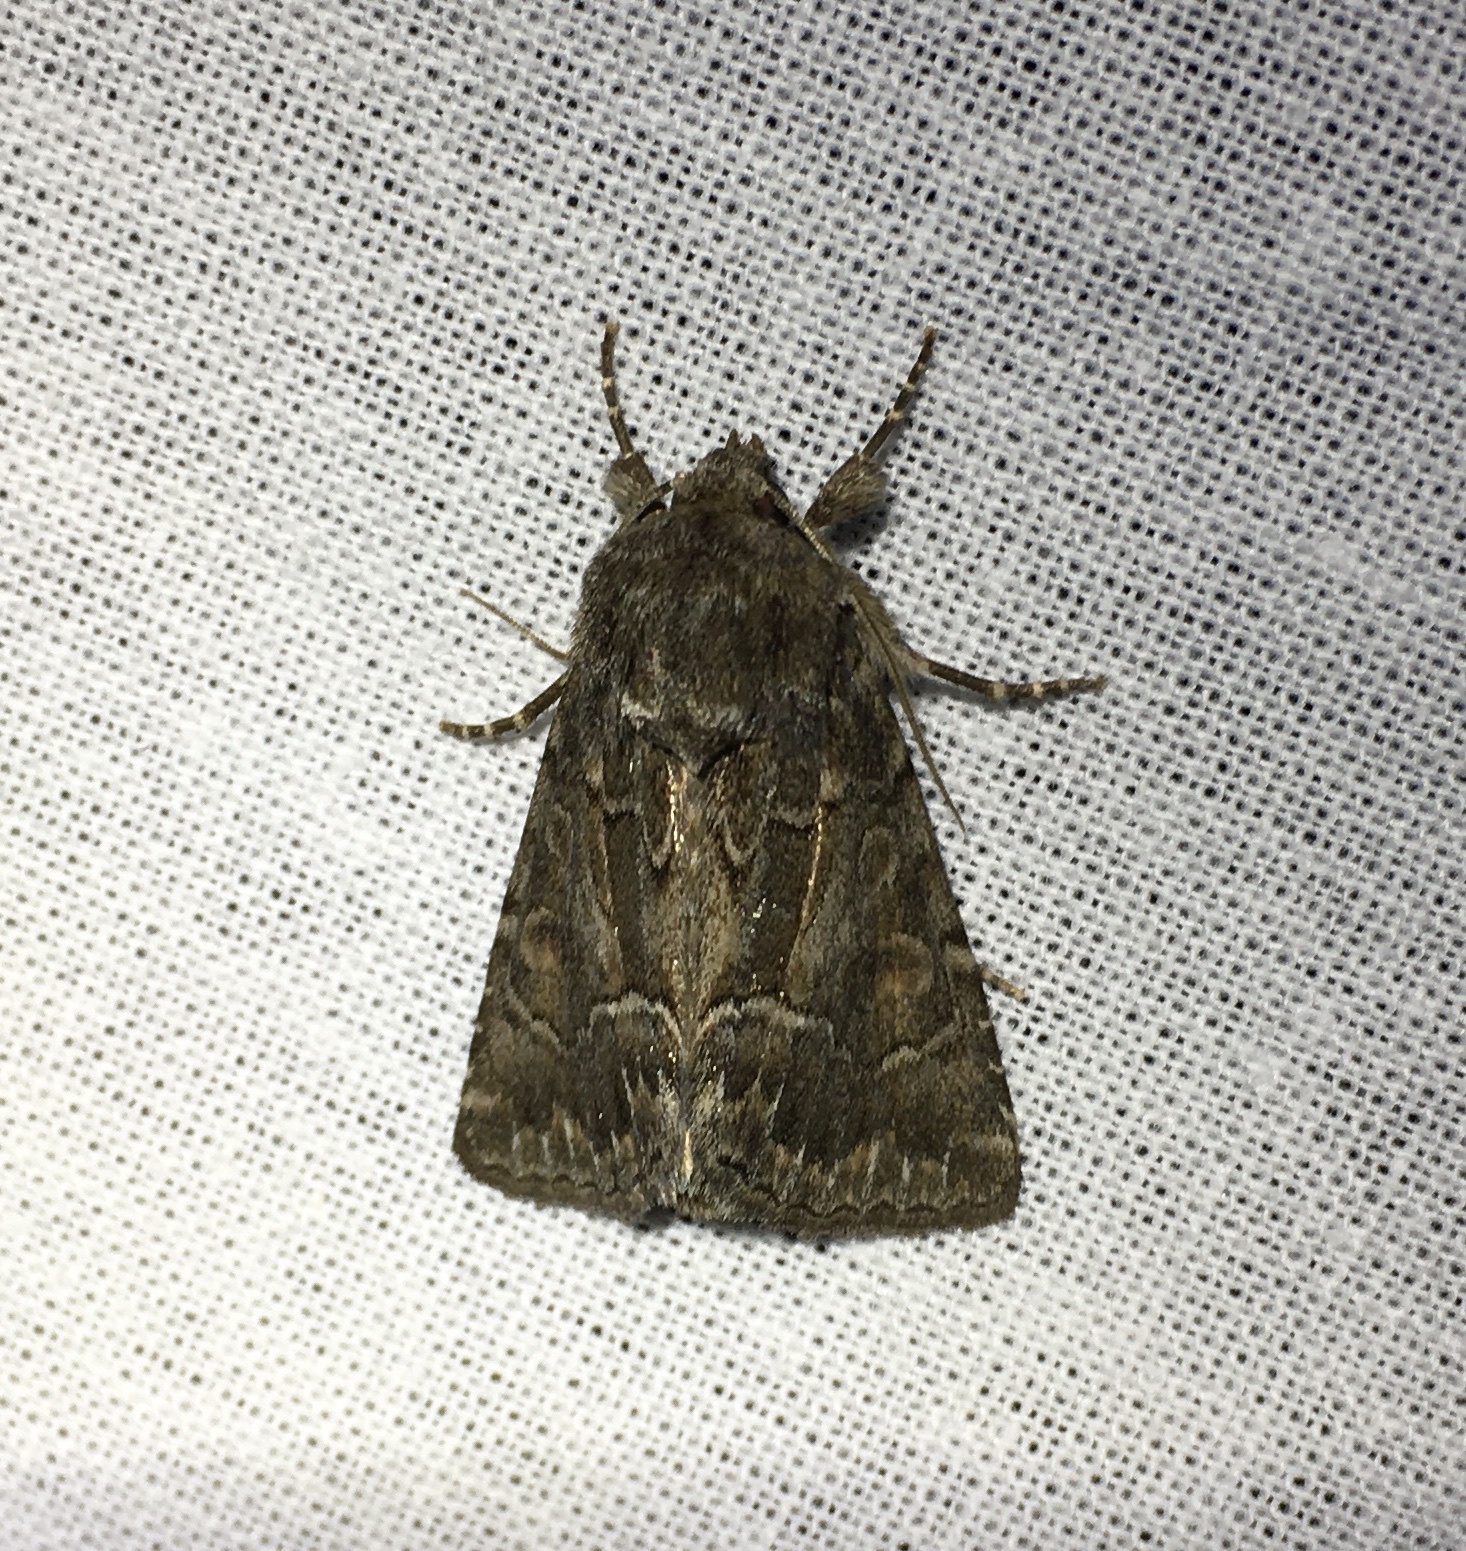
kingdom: Animalia
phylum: Arthropoda
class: Insecta
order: Lepidoptera
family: Noctuidae
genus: Thalpophila
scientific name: Thalpophila matura
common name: Straw underwing
